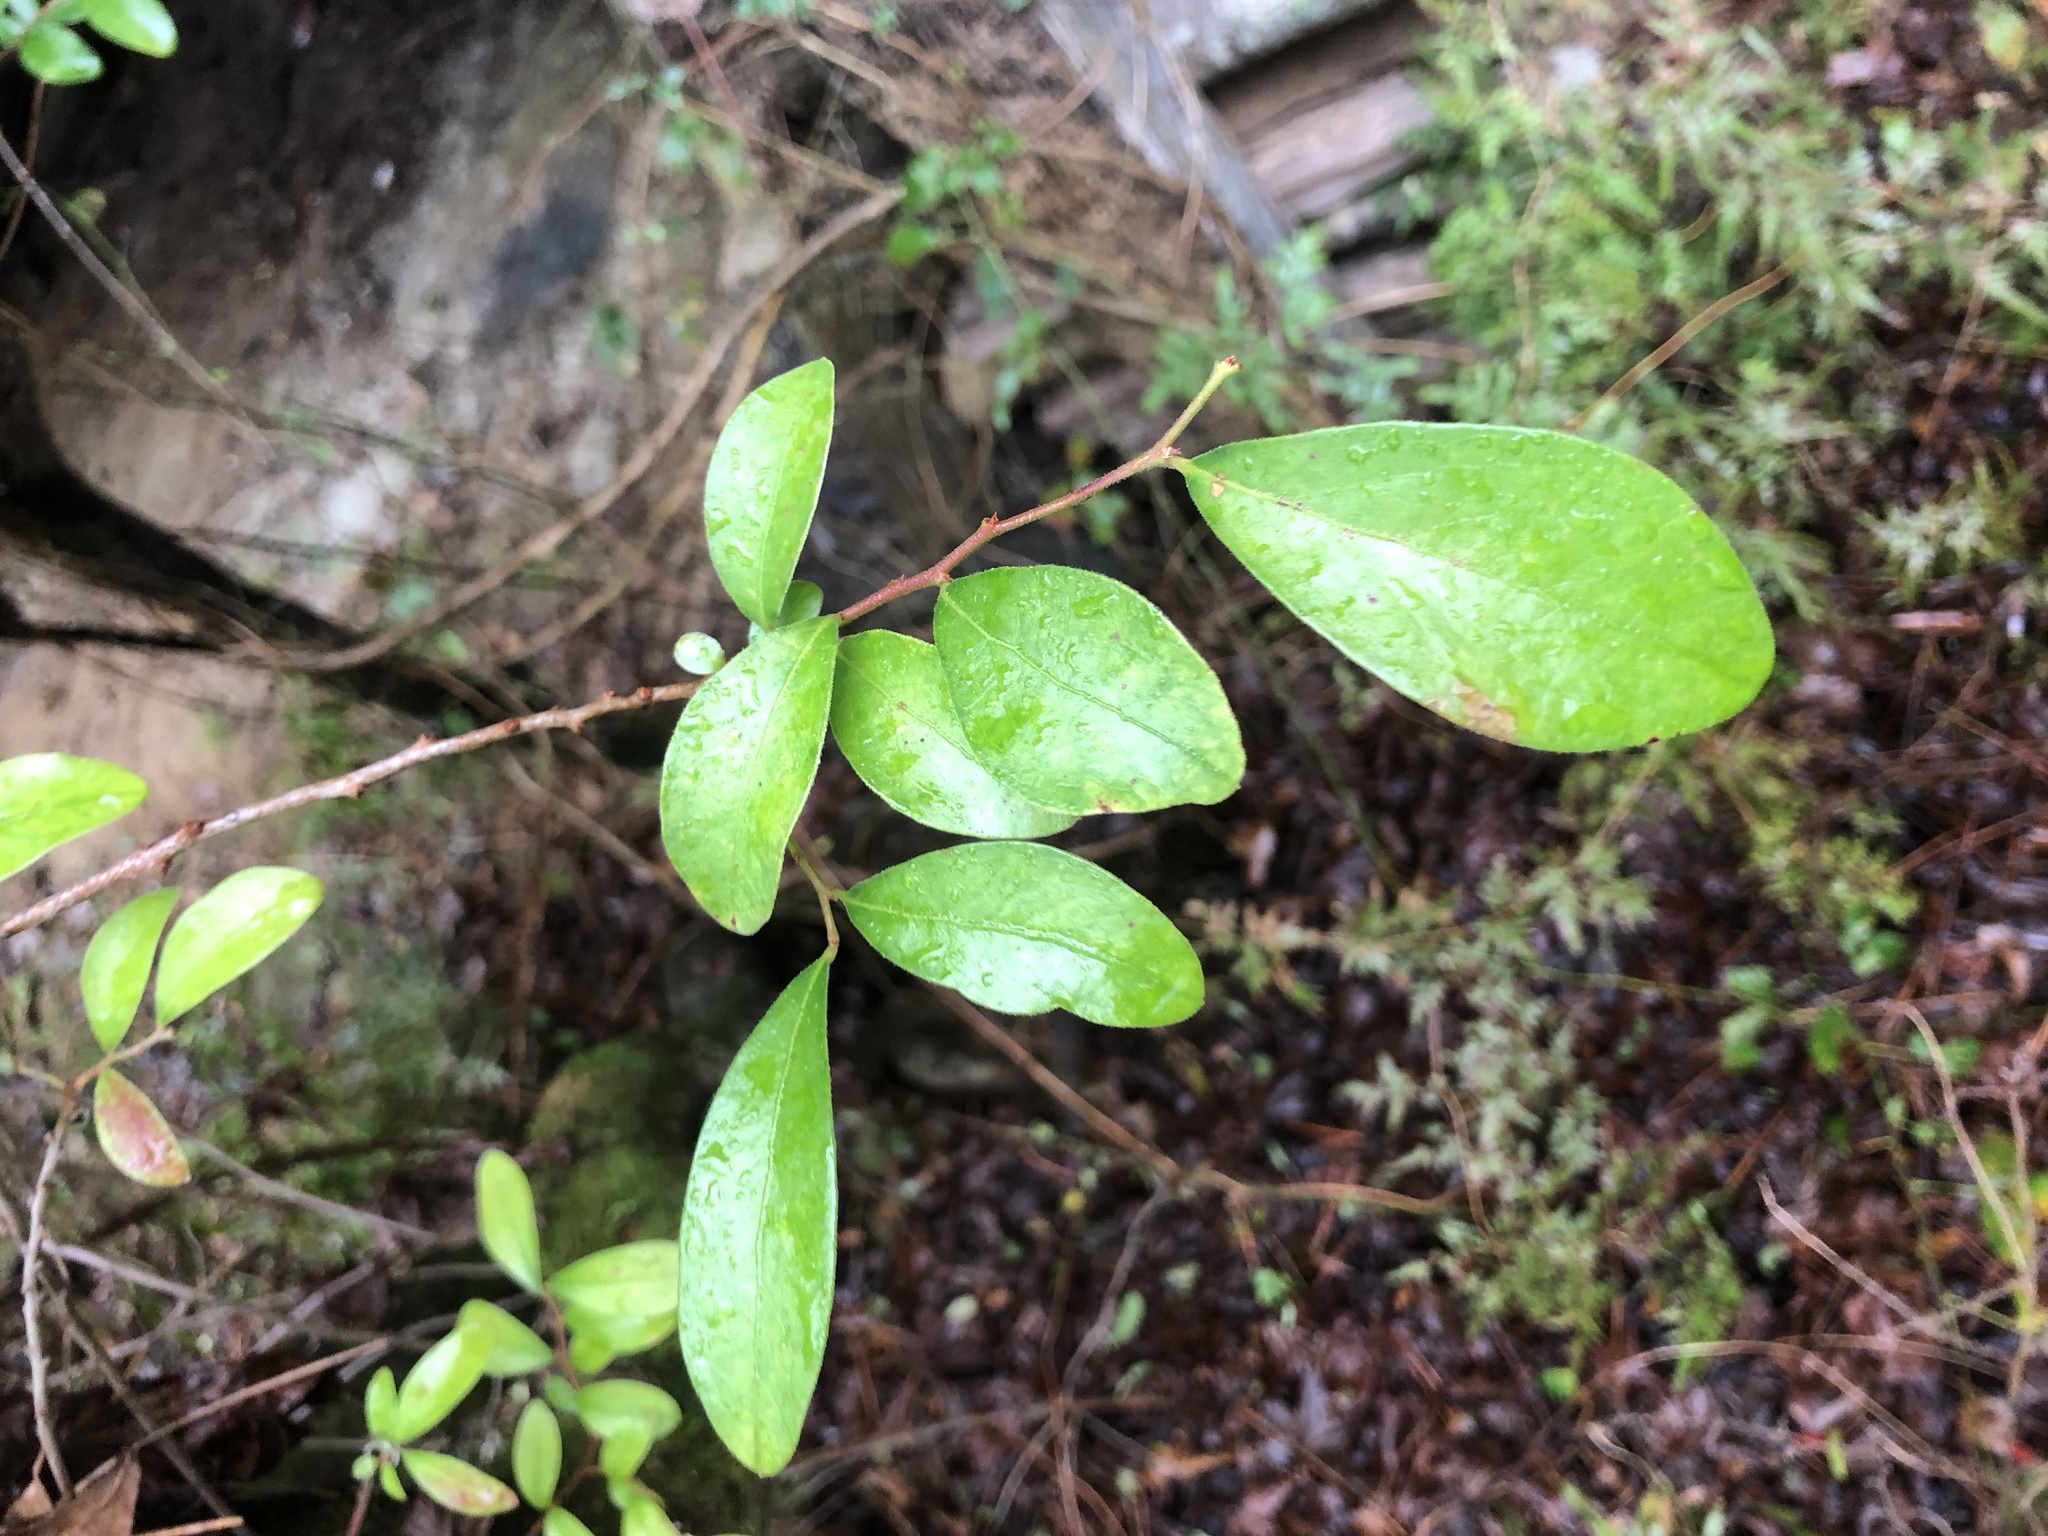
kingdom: Plantae
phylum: Tracheophyta
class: Magnoliopsida
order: Ericales
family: Ericaceae
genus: Vaccinium
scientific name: Vaccinium arboreum
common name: Farkleberry
